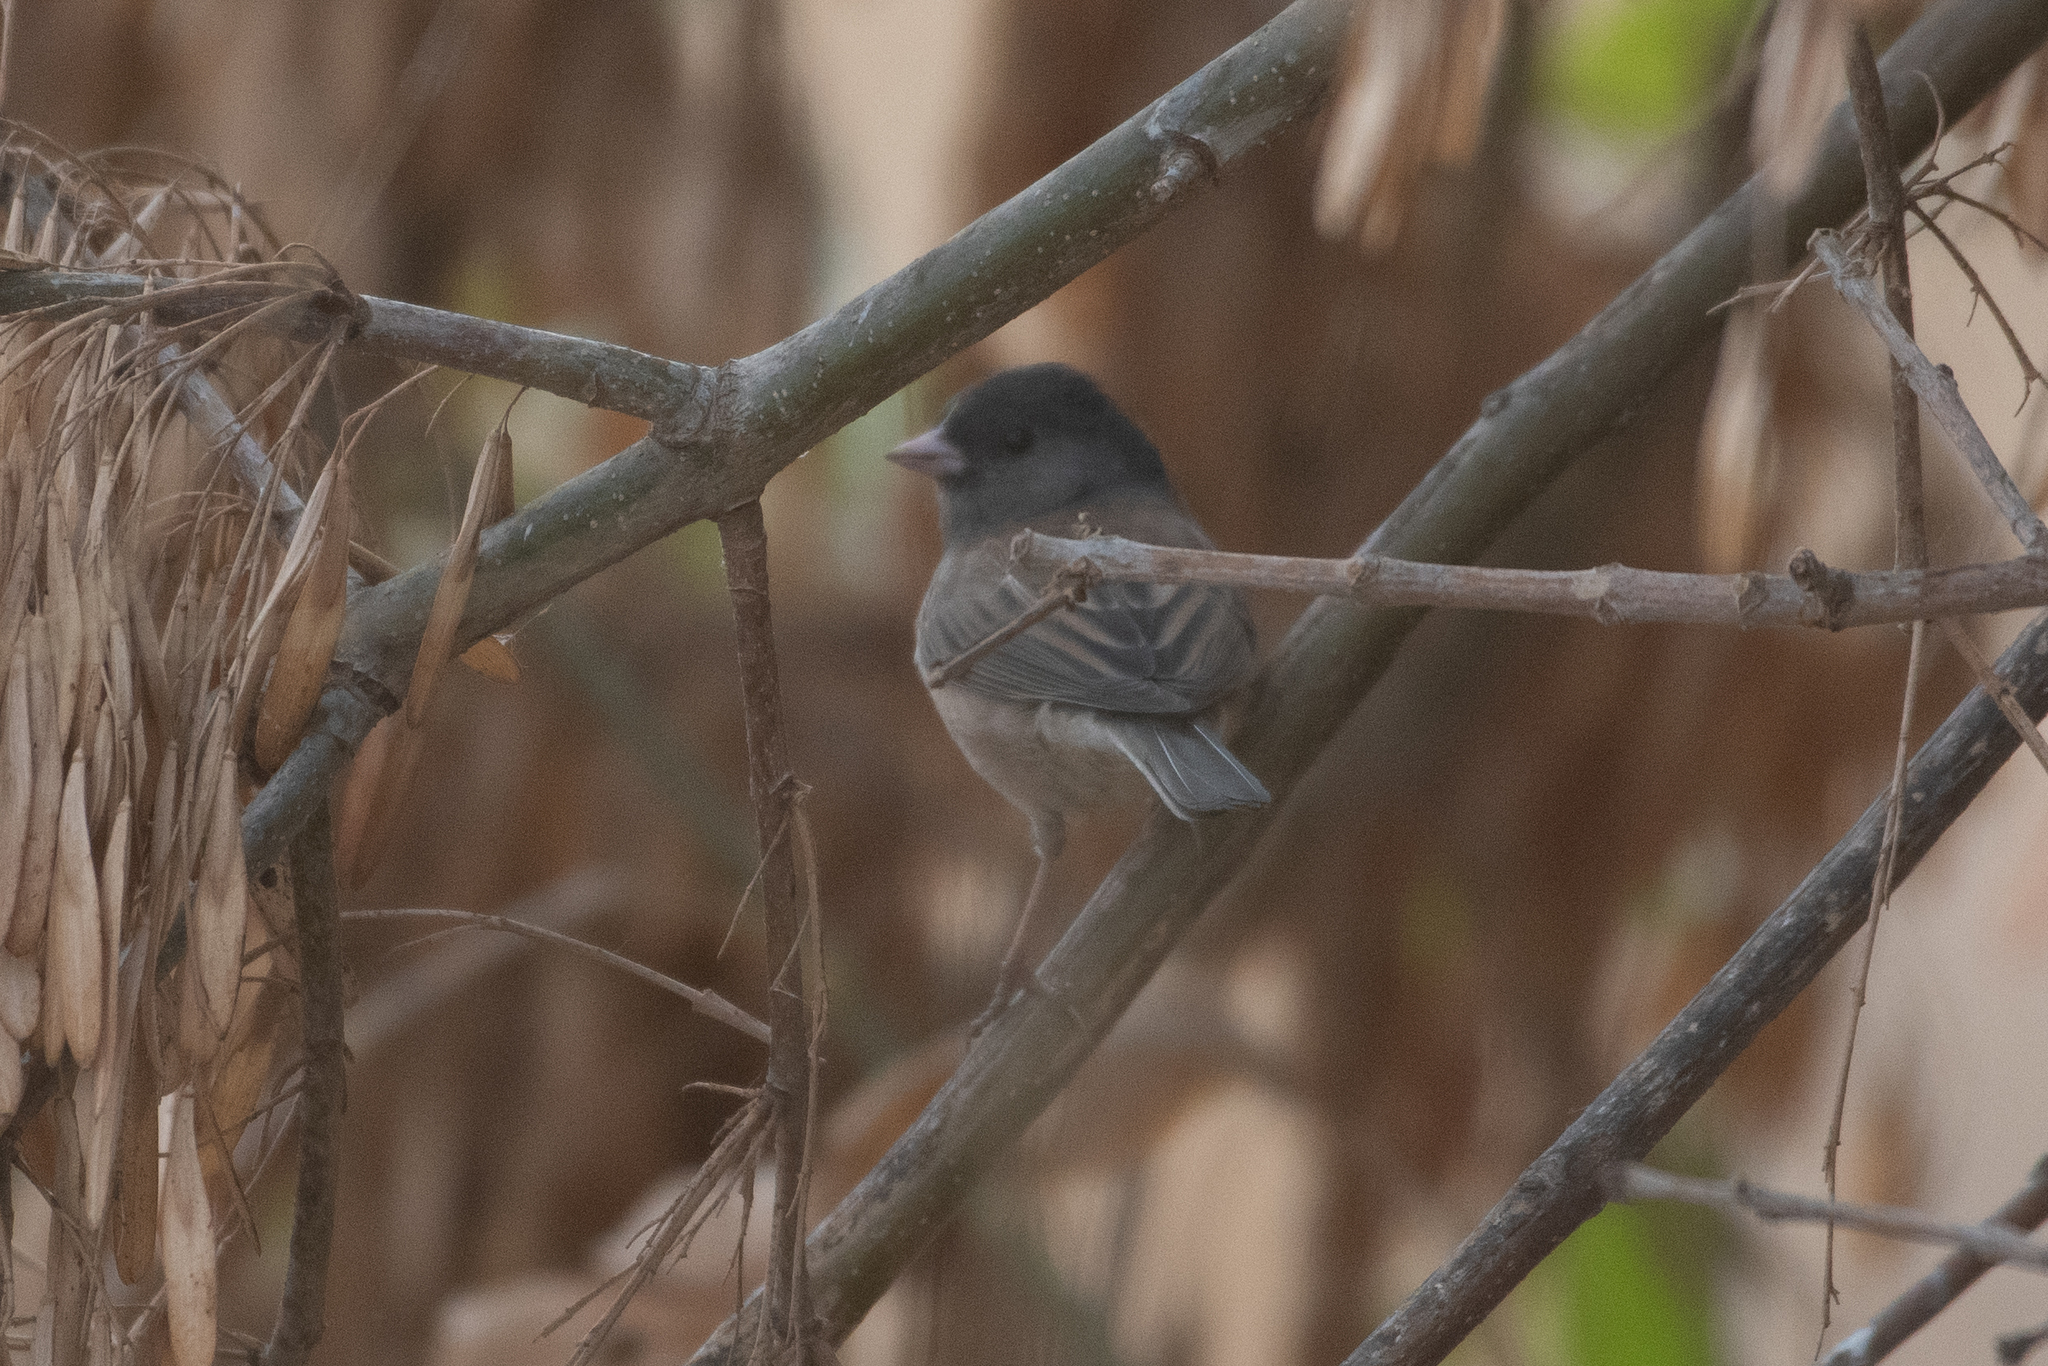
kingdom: Animalia
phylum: Chordata
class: Aves
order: Passeriformes
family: Passerellidae
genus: Junco
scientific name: Junco hyemalis
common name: Dark-eyed junco
